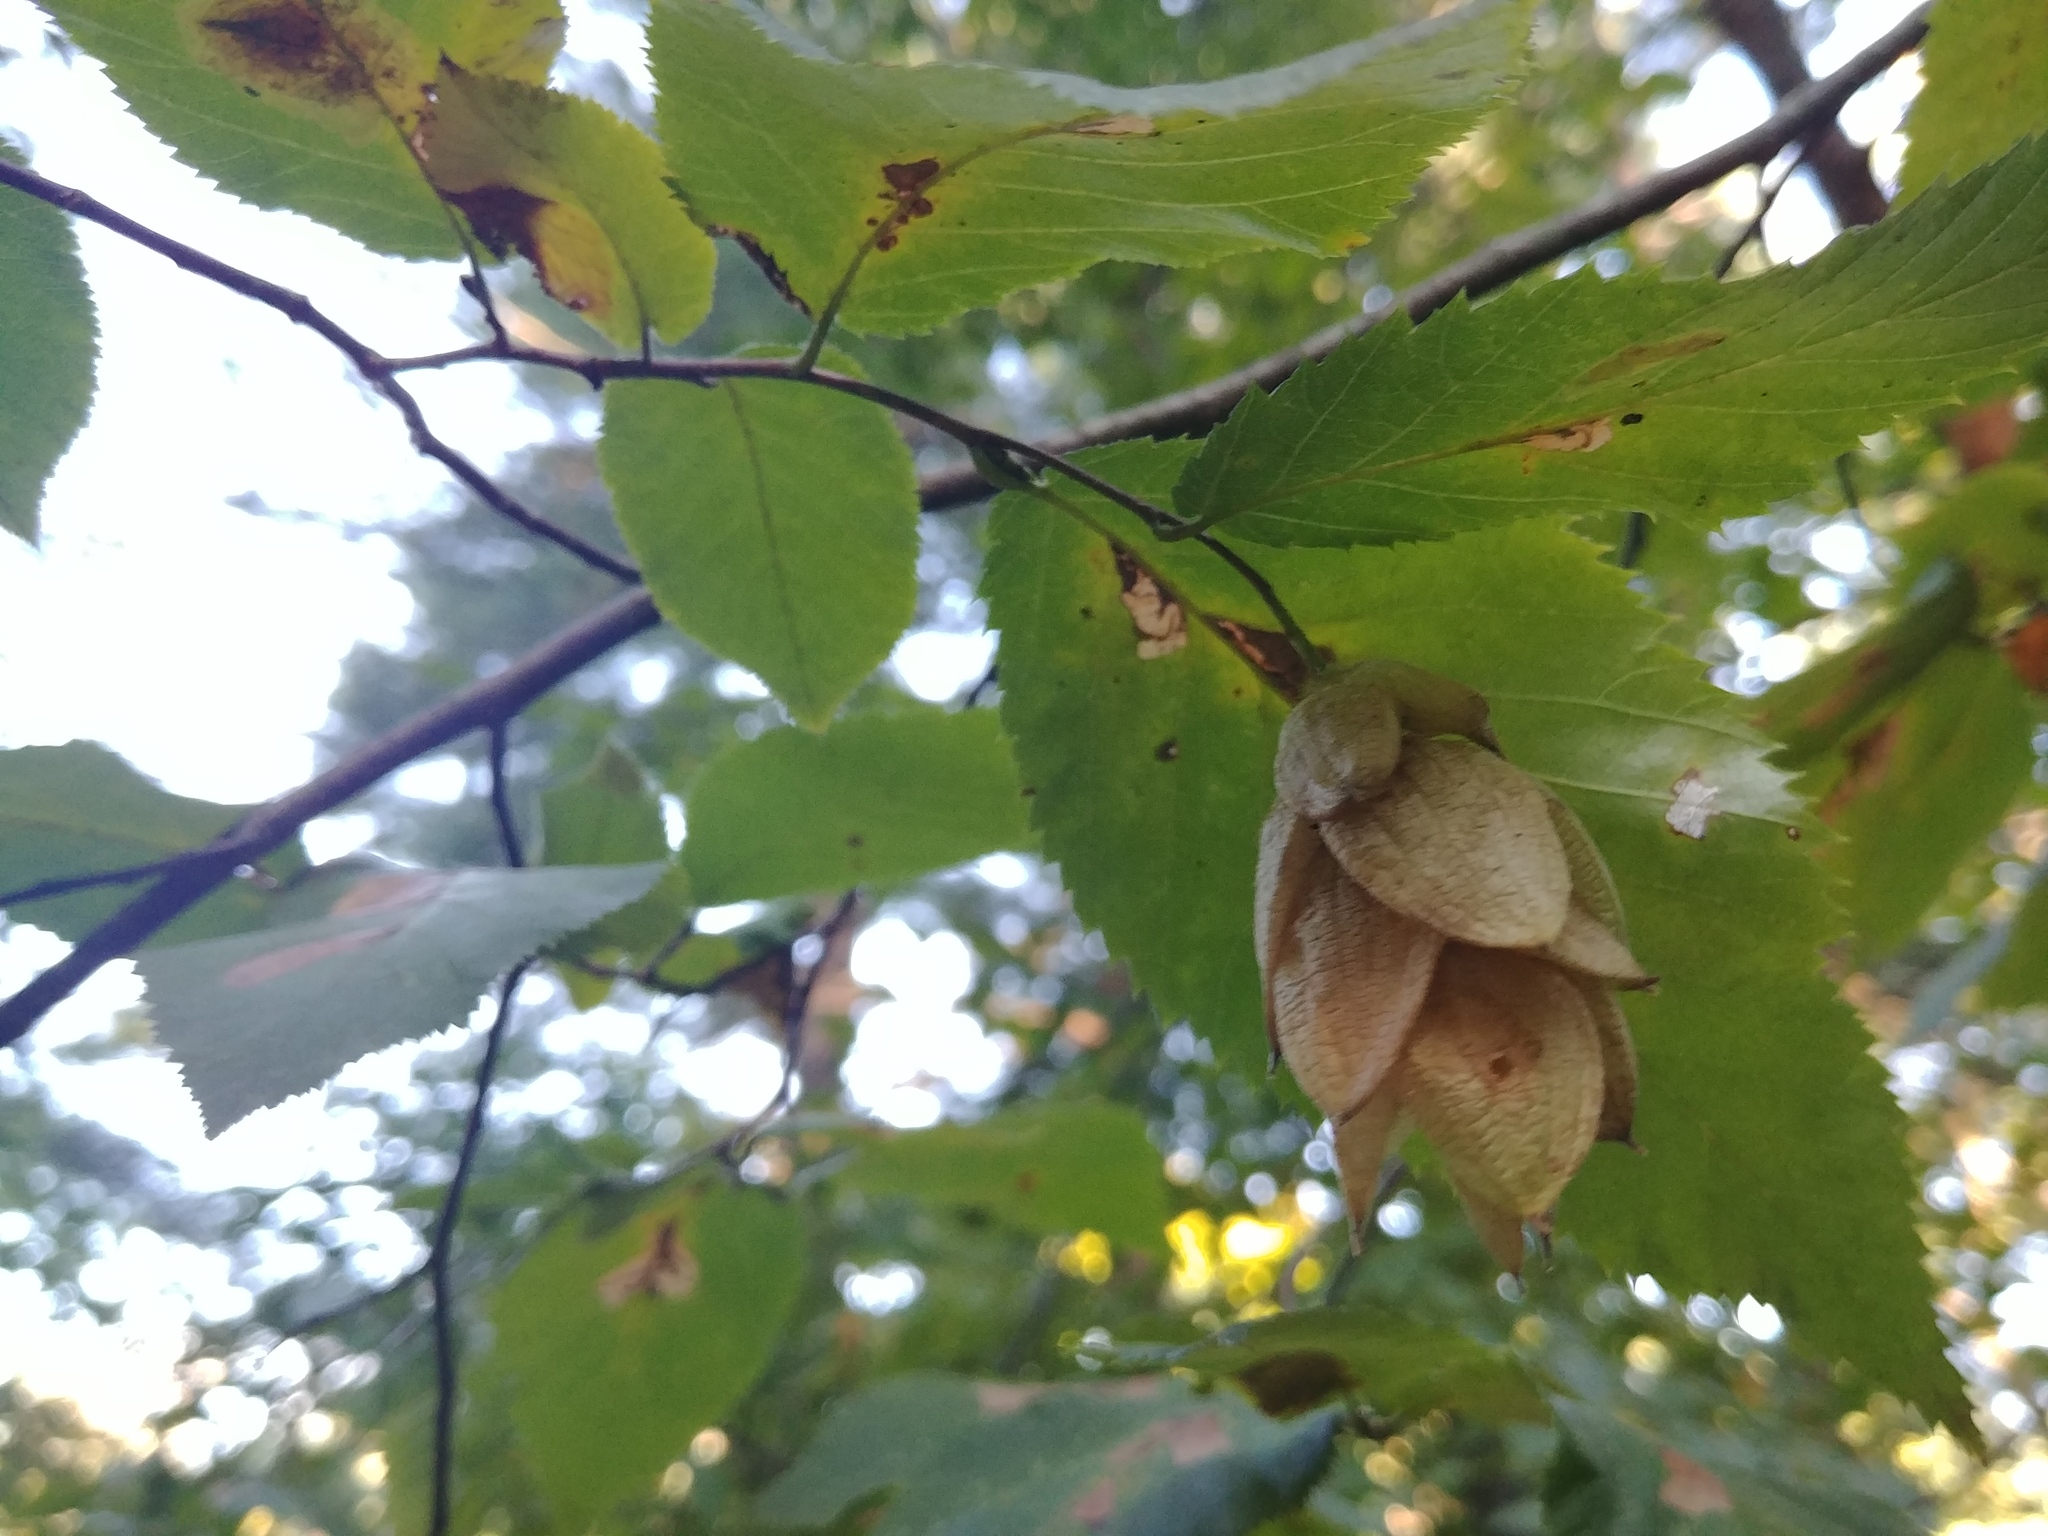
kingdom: Plantae
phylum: Tracheophyta
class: Magnoliopsida
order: Fagales
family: Betulaceae
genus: Ostrya
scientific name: Ostrya virginiana
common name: Ironwood
